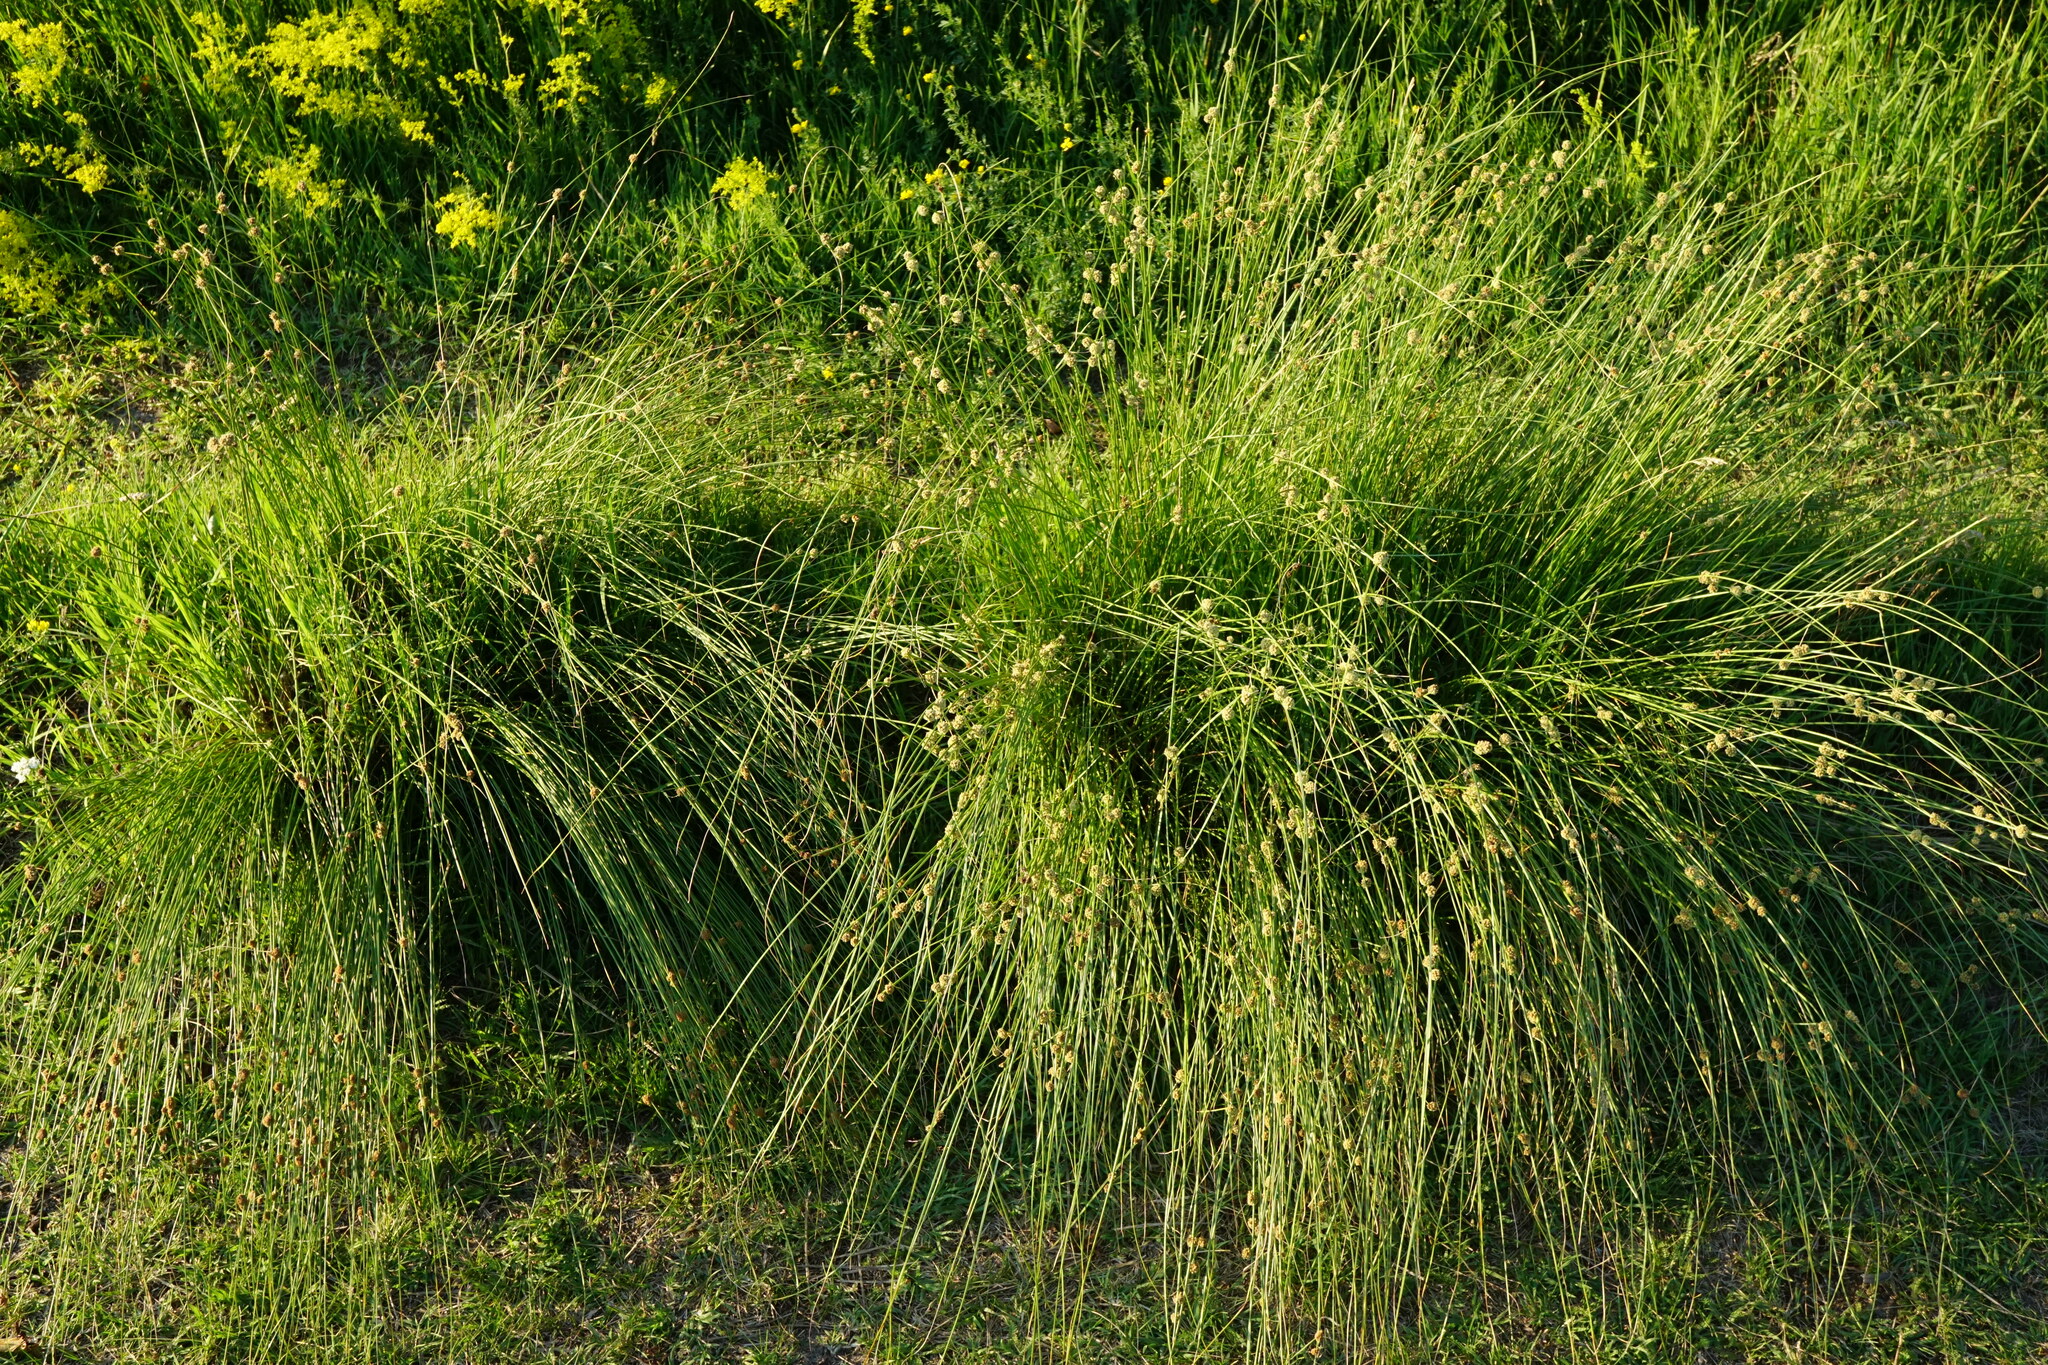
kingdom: Plantae
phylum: Tracheophyta
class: Liliopsida
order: Poales
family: Cyperaceae
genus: Scirpoides
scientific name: Scirpoides holoschoenus
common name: Round-headed club-rush
